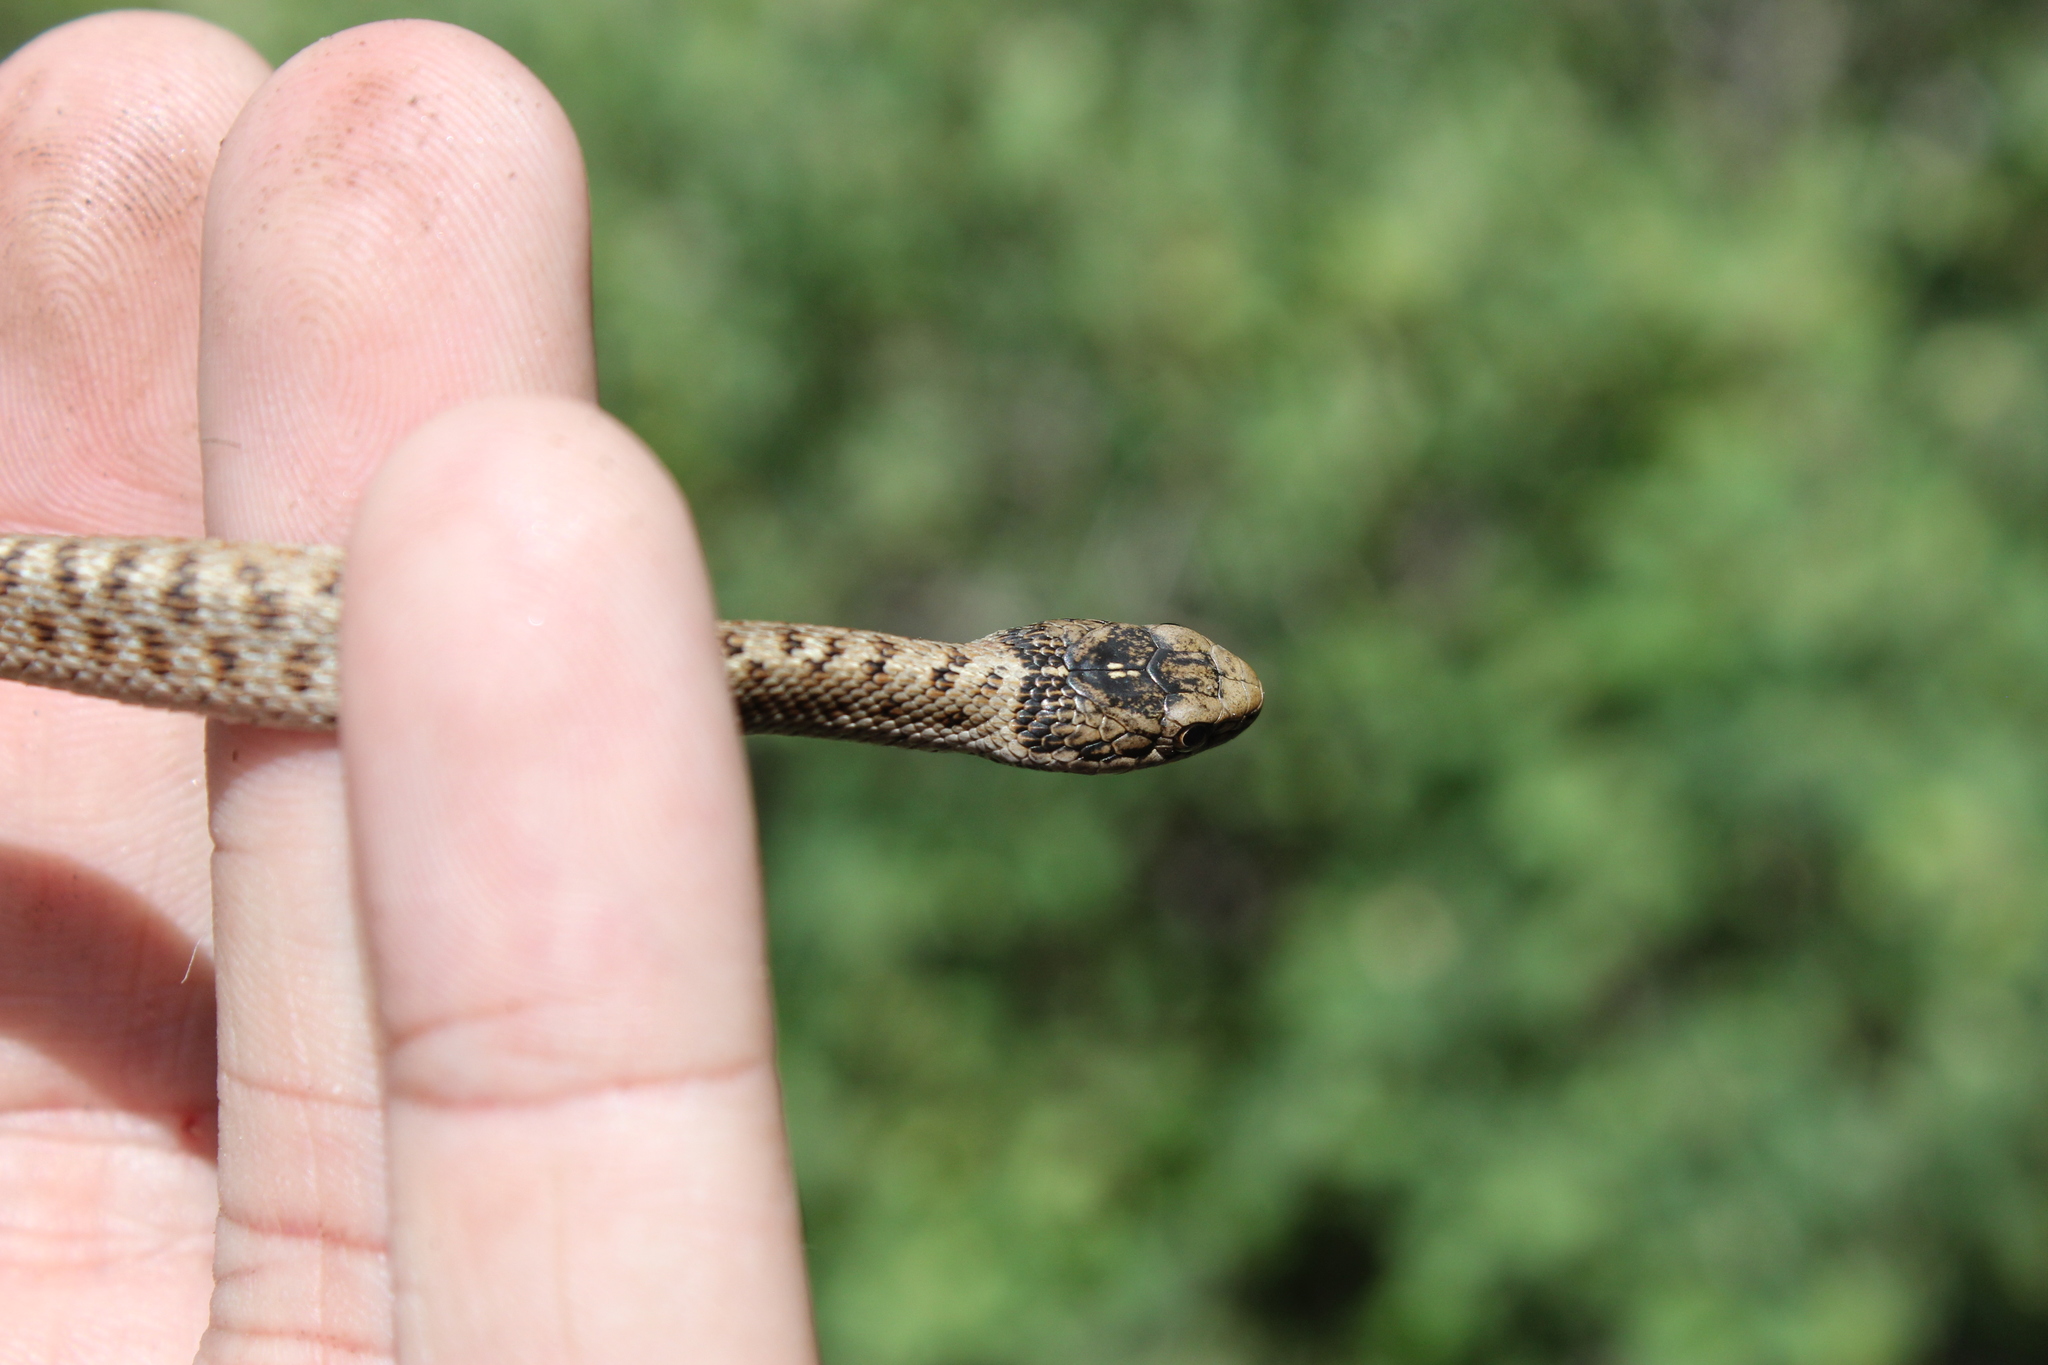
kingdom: Animalia
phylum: Chordata
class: Squamata
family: Colubridae
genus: Thamnophis
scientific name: Thamnophis elegans
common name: Western terrestrial garter snake
